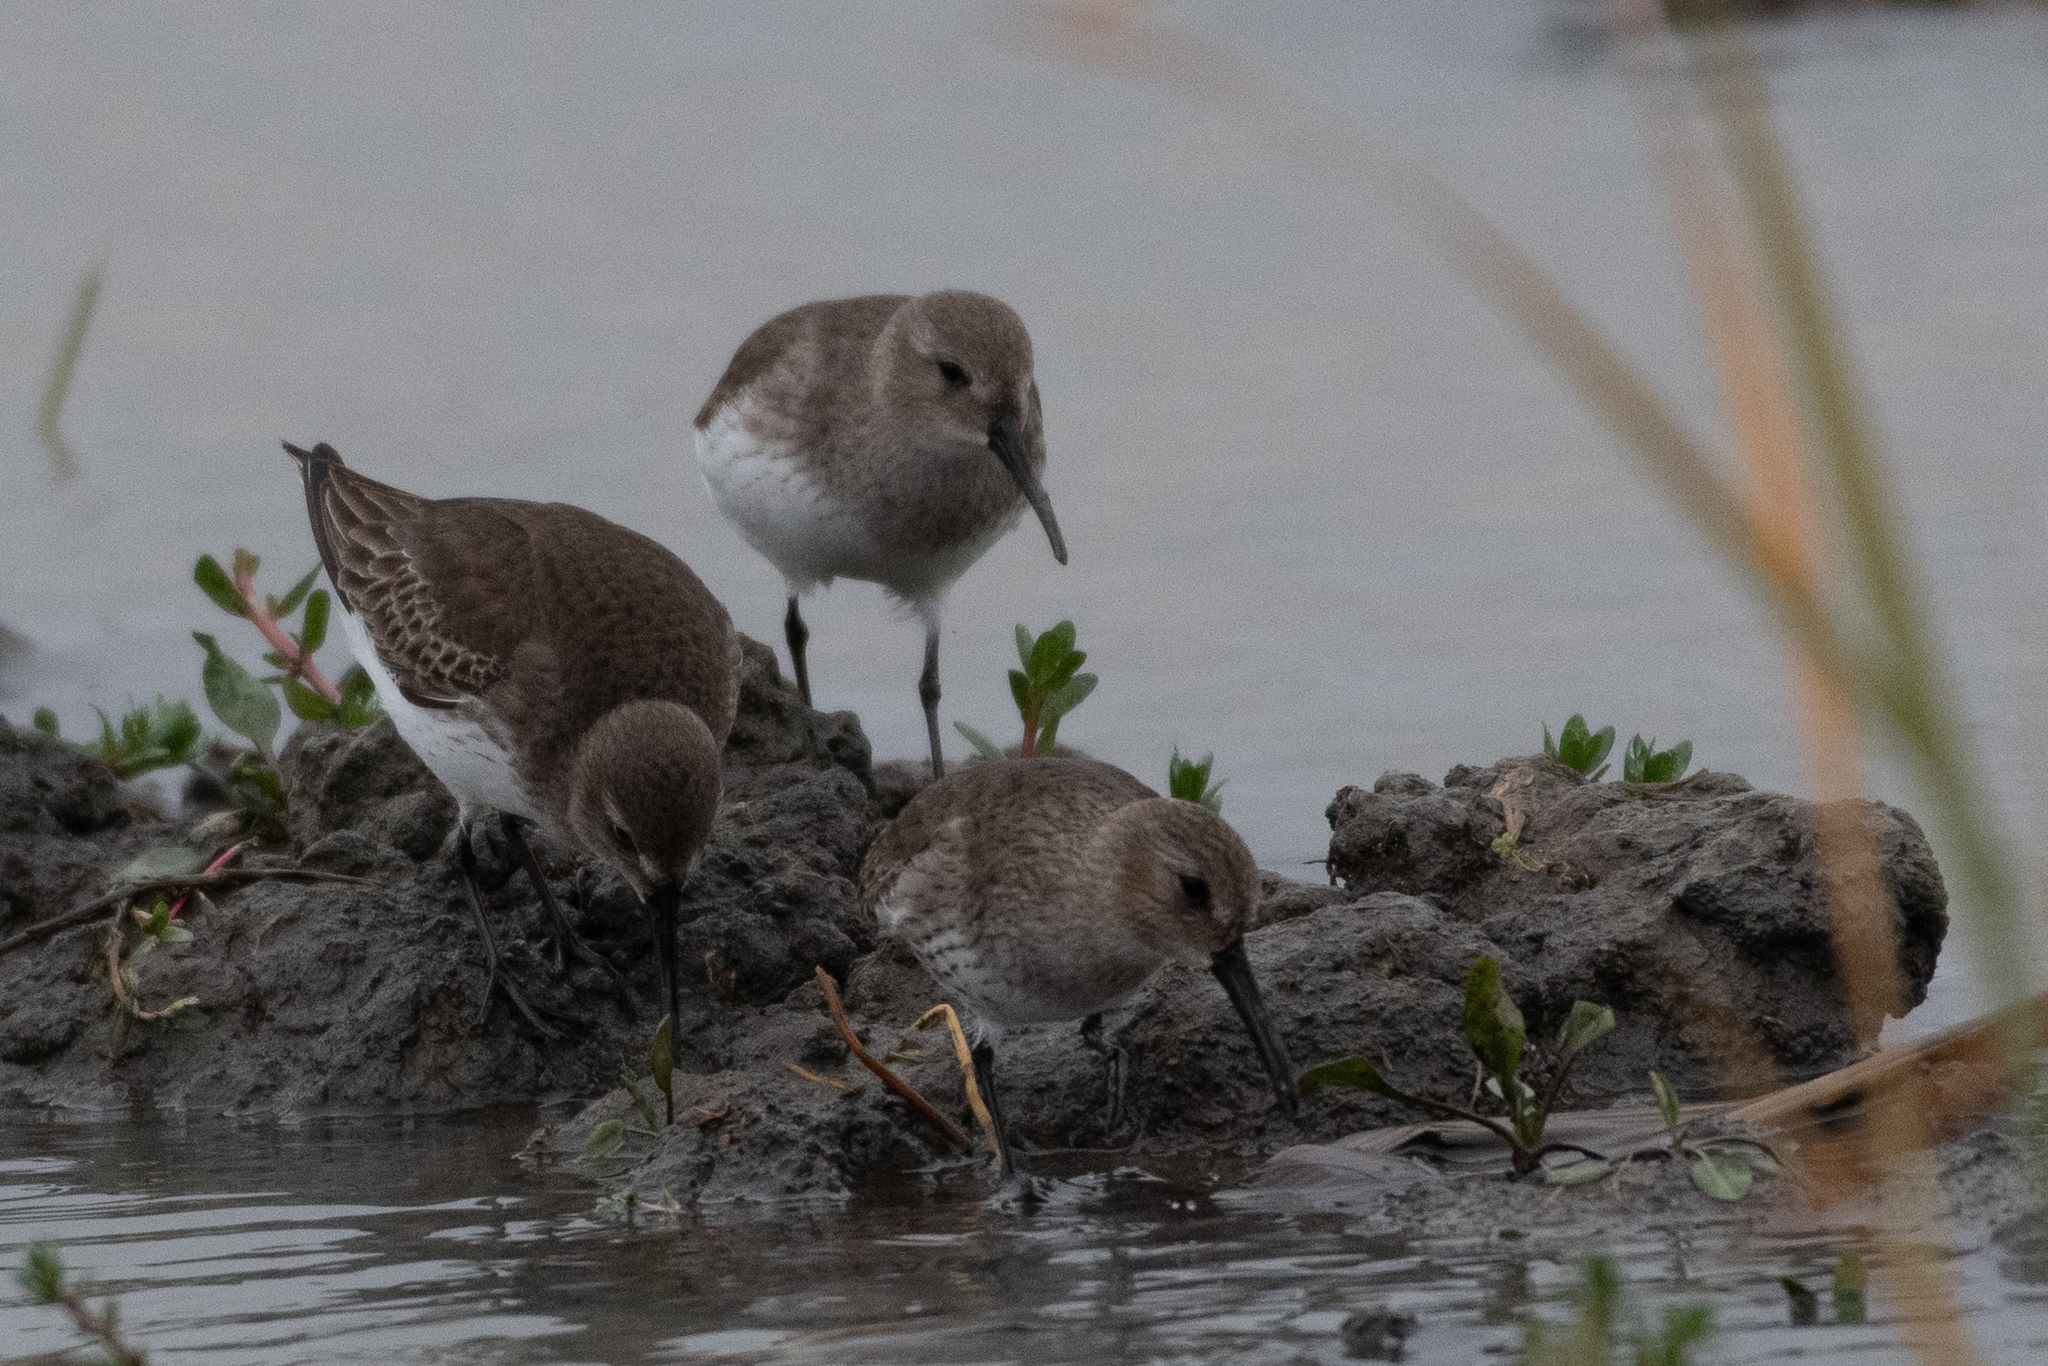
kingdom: Animalia
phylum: Chordata
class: Aves
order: Charadriiformes
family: Scolopacidae
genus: Calidris
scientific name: Calidris alpina
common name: Dunlin
